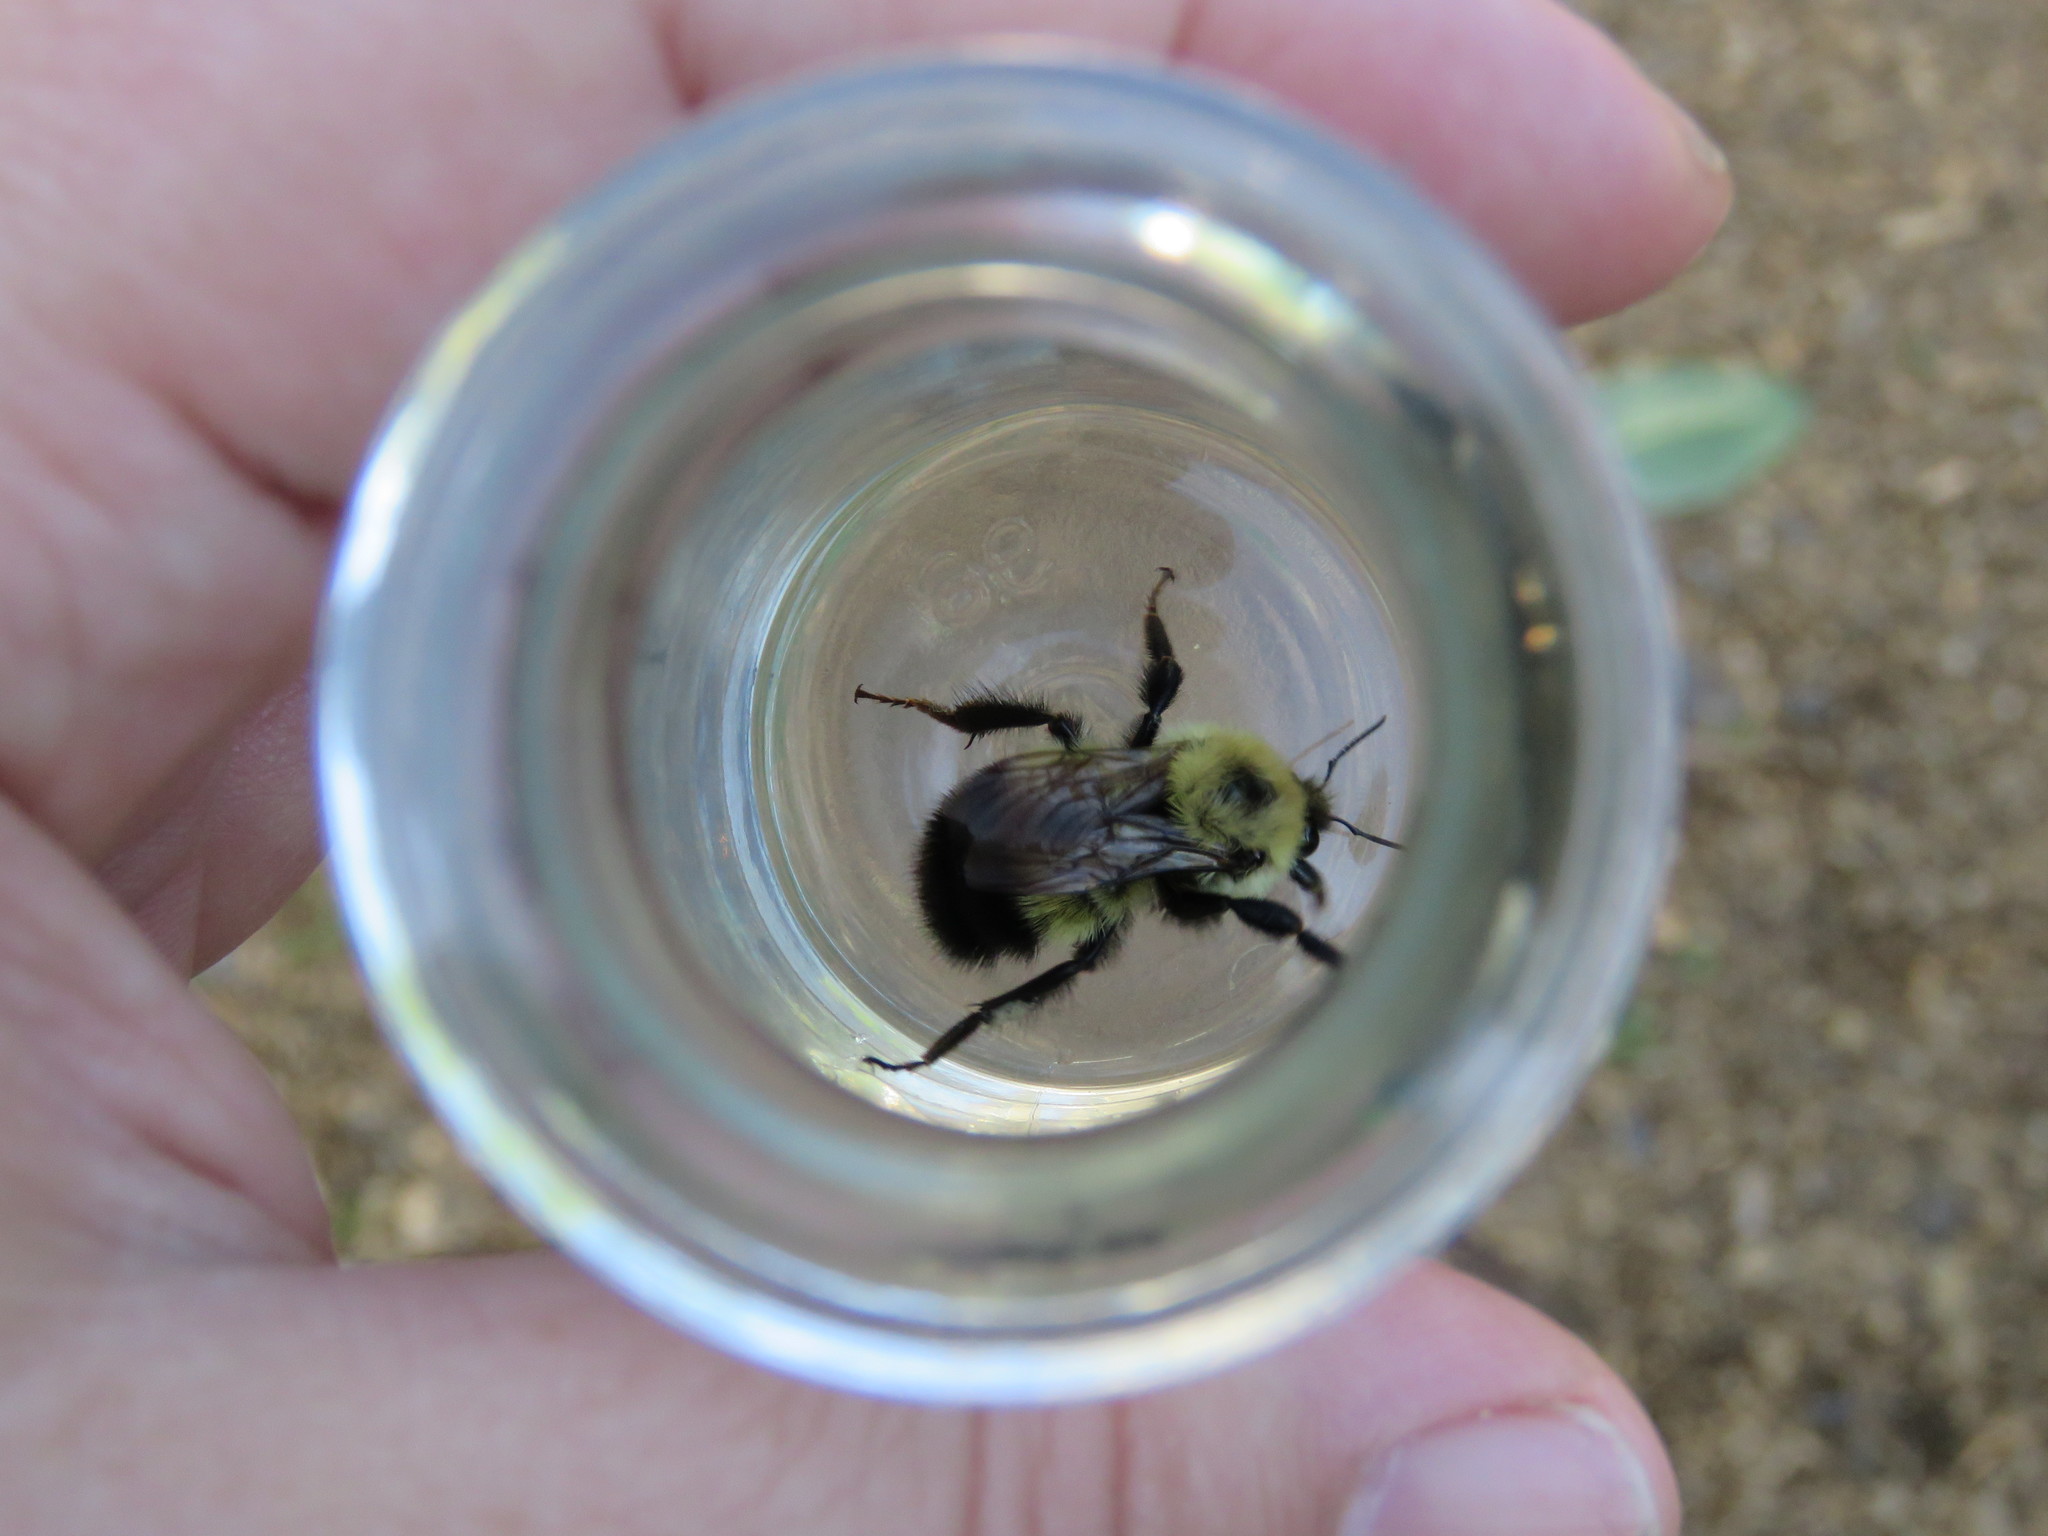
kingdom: Animalia
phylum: Arthropoda
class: Insecta
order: Hymenoptera
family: Apidae
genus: Bombus
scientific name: Bombus vagans
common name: Half-black bumble bee
